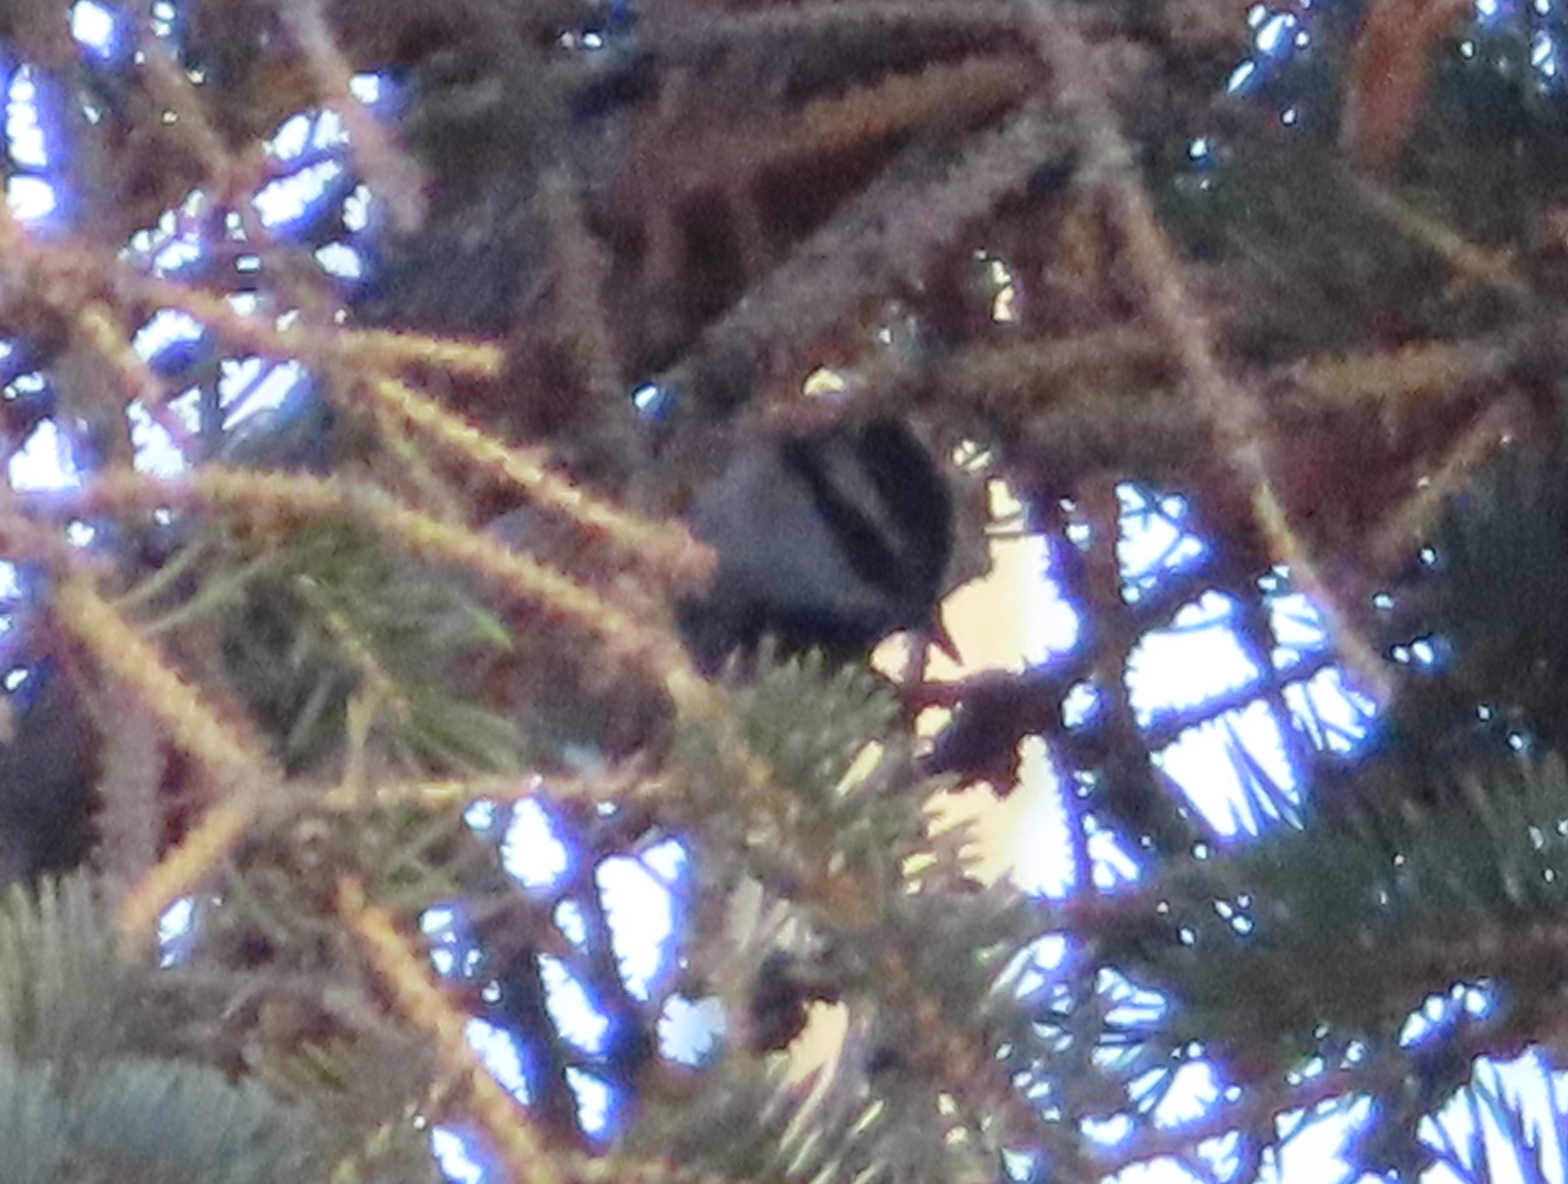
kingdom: Animalia
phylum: Chordata
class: Aves
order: Passeriformes
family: Paridae
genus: Poecile
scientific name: Poecile gambeli
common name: Mountain chickadee
